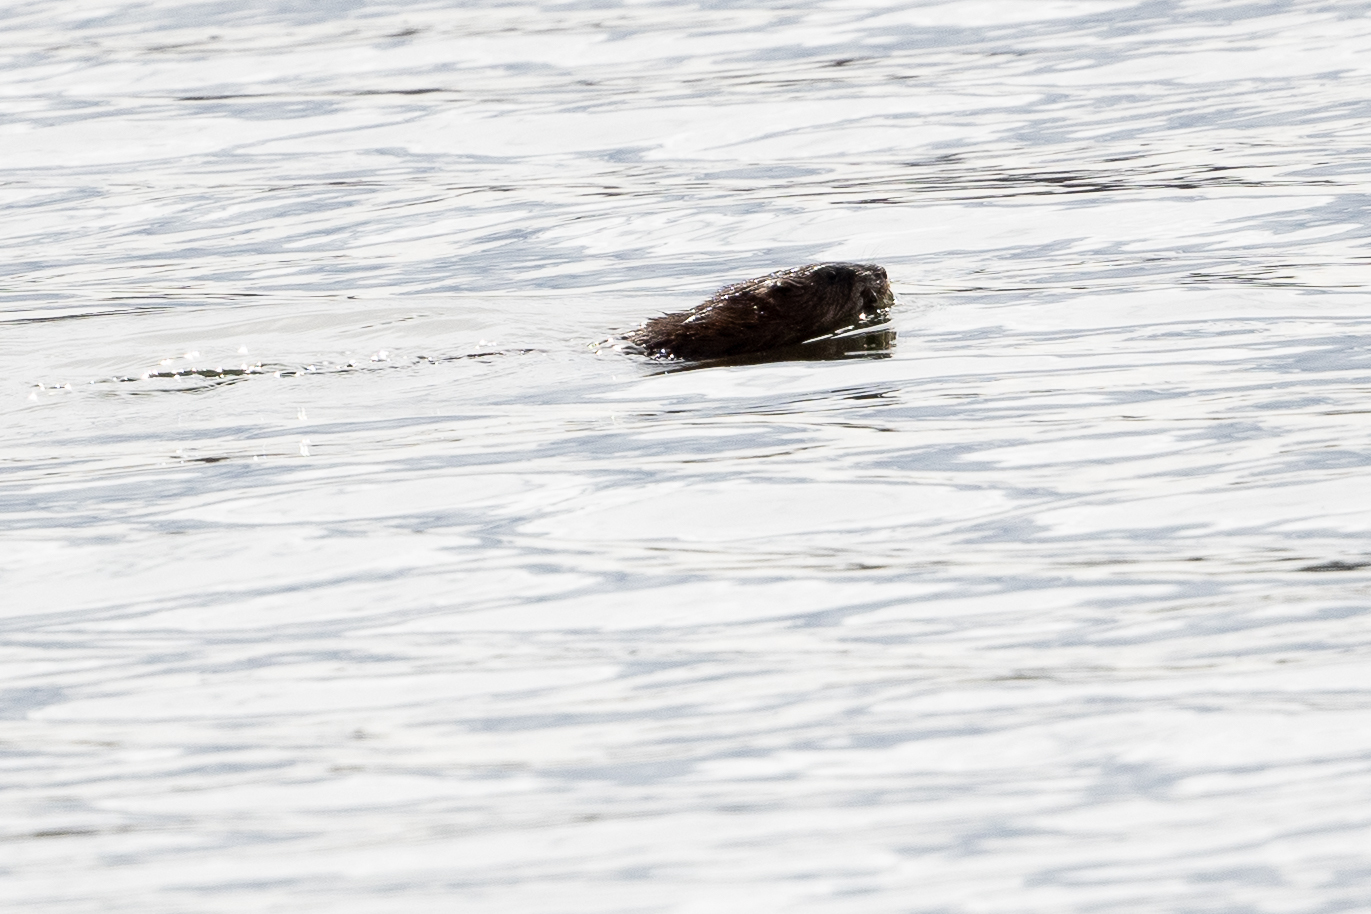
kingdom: Animalia
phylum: Chordata
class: Mammalia
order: Rodentia
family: Cricetidae
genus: Ondatra
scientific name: Ondatra zibethicus
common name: Muskrat
